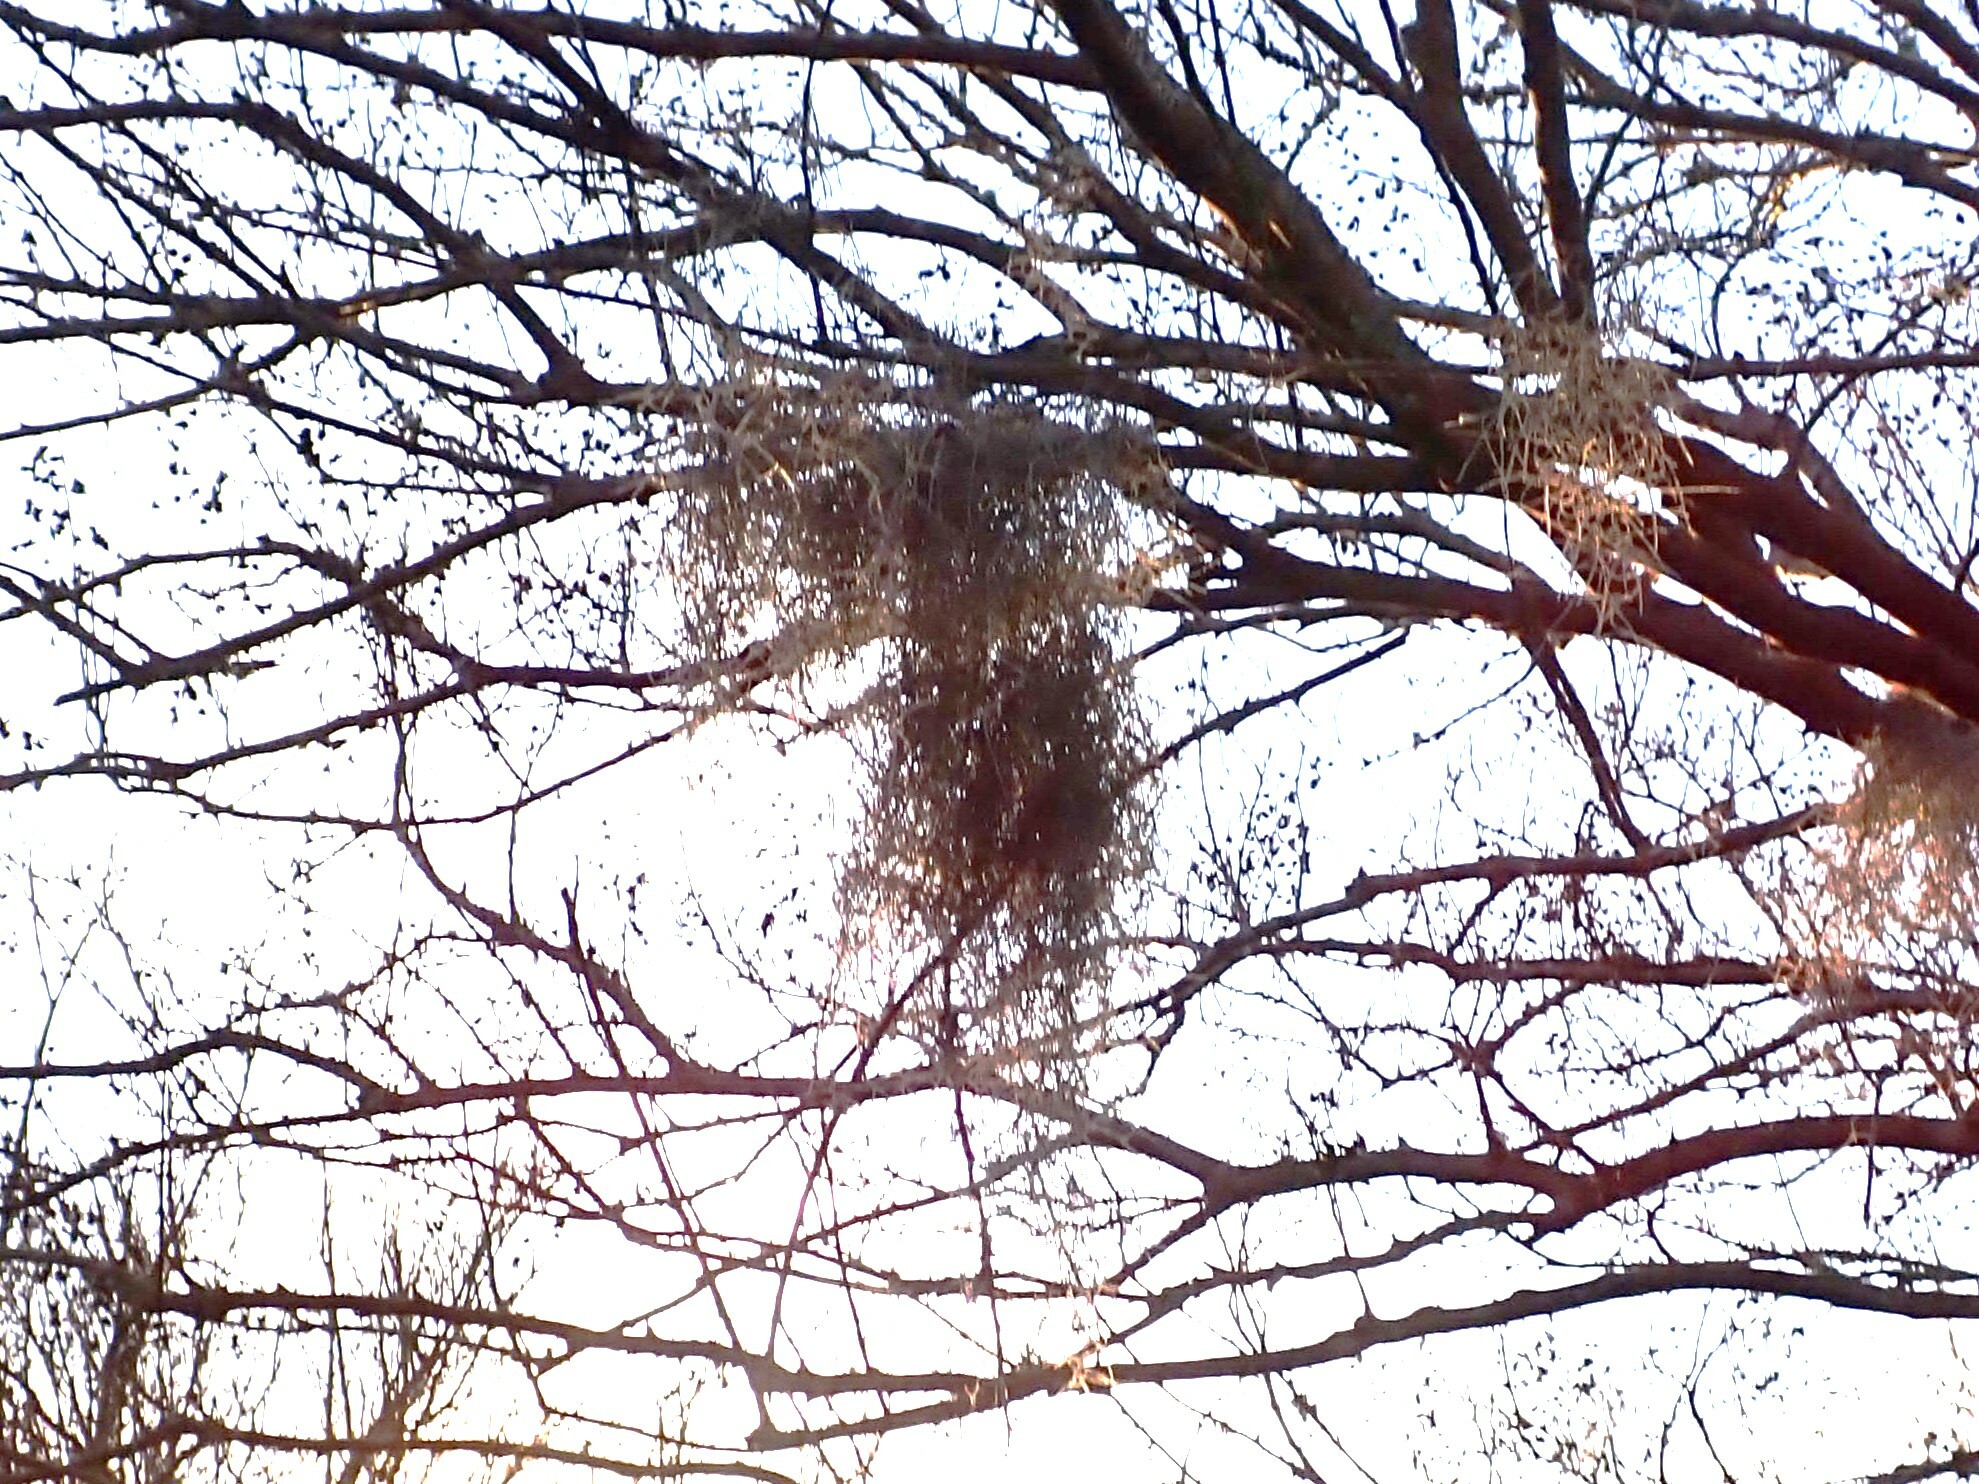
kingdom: Plantae
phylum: Tracheophyta
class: Liliopsida
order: Poales
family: Bromeliaceae
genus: Tillandsia
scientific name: Tillandsia usneoides
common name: Spanish moss
